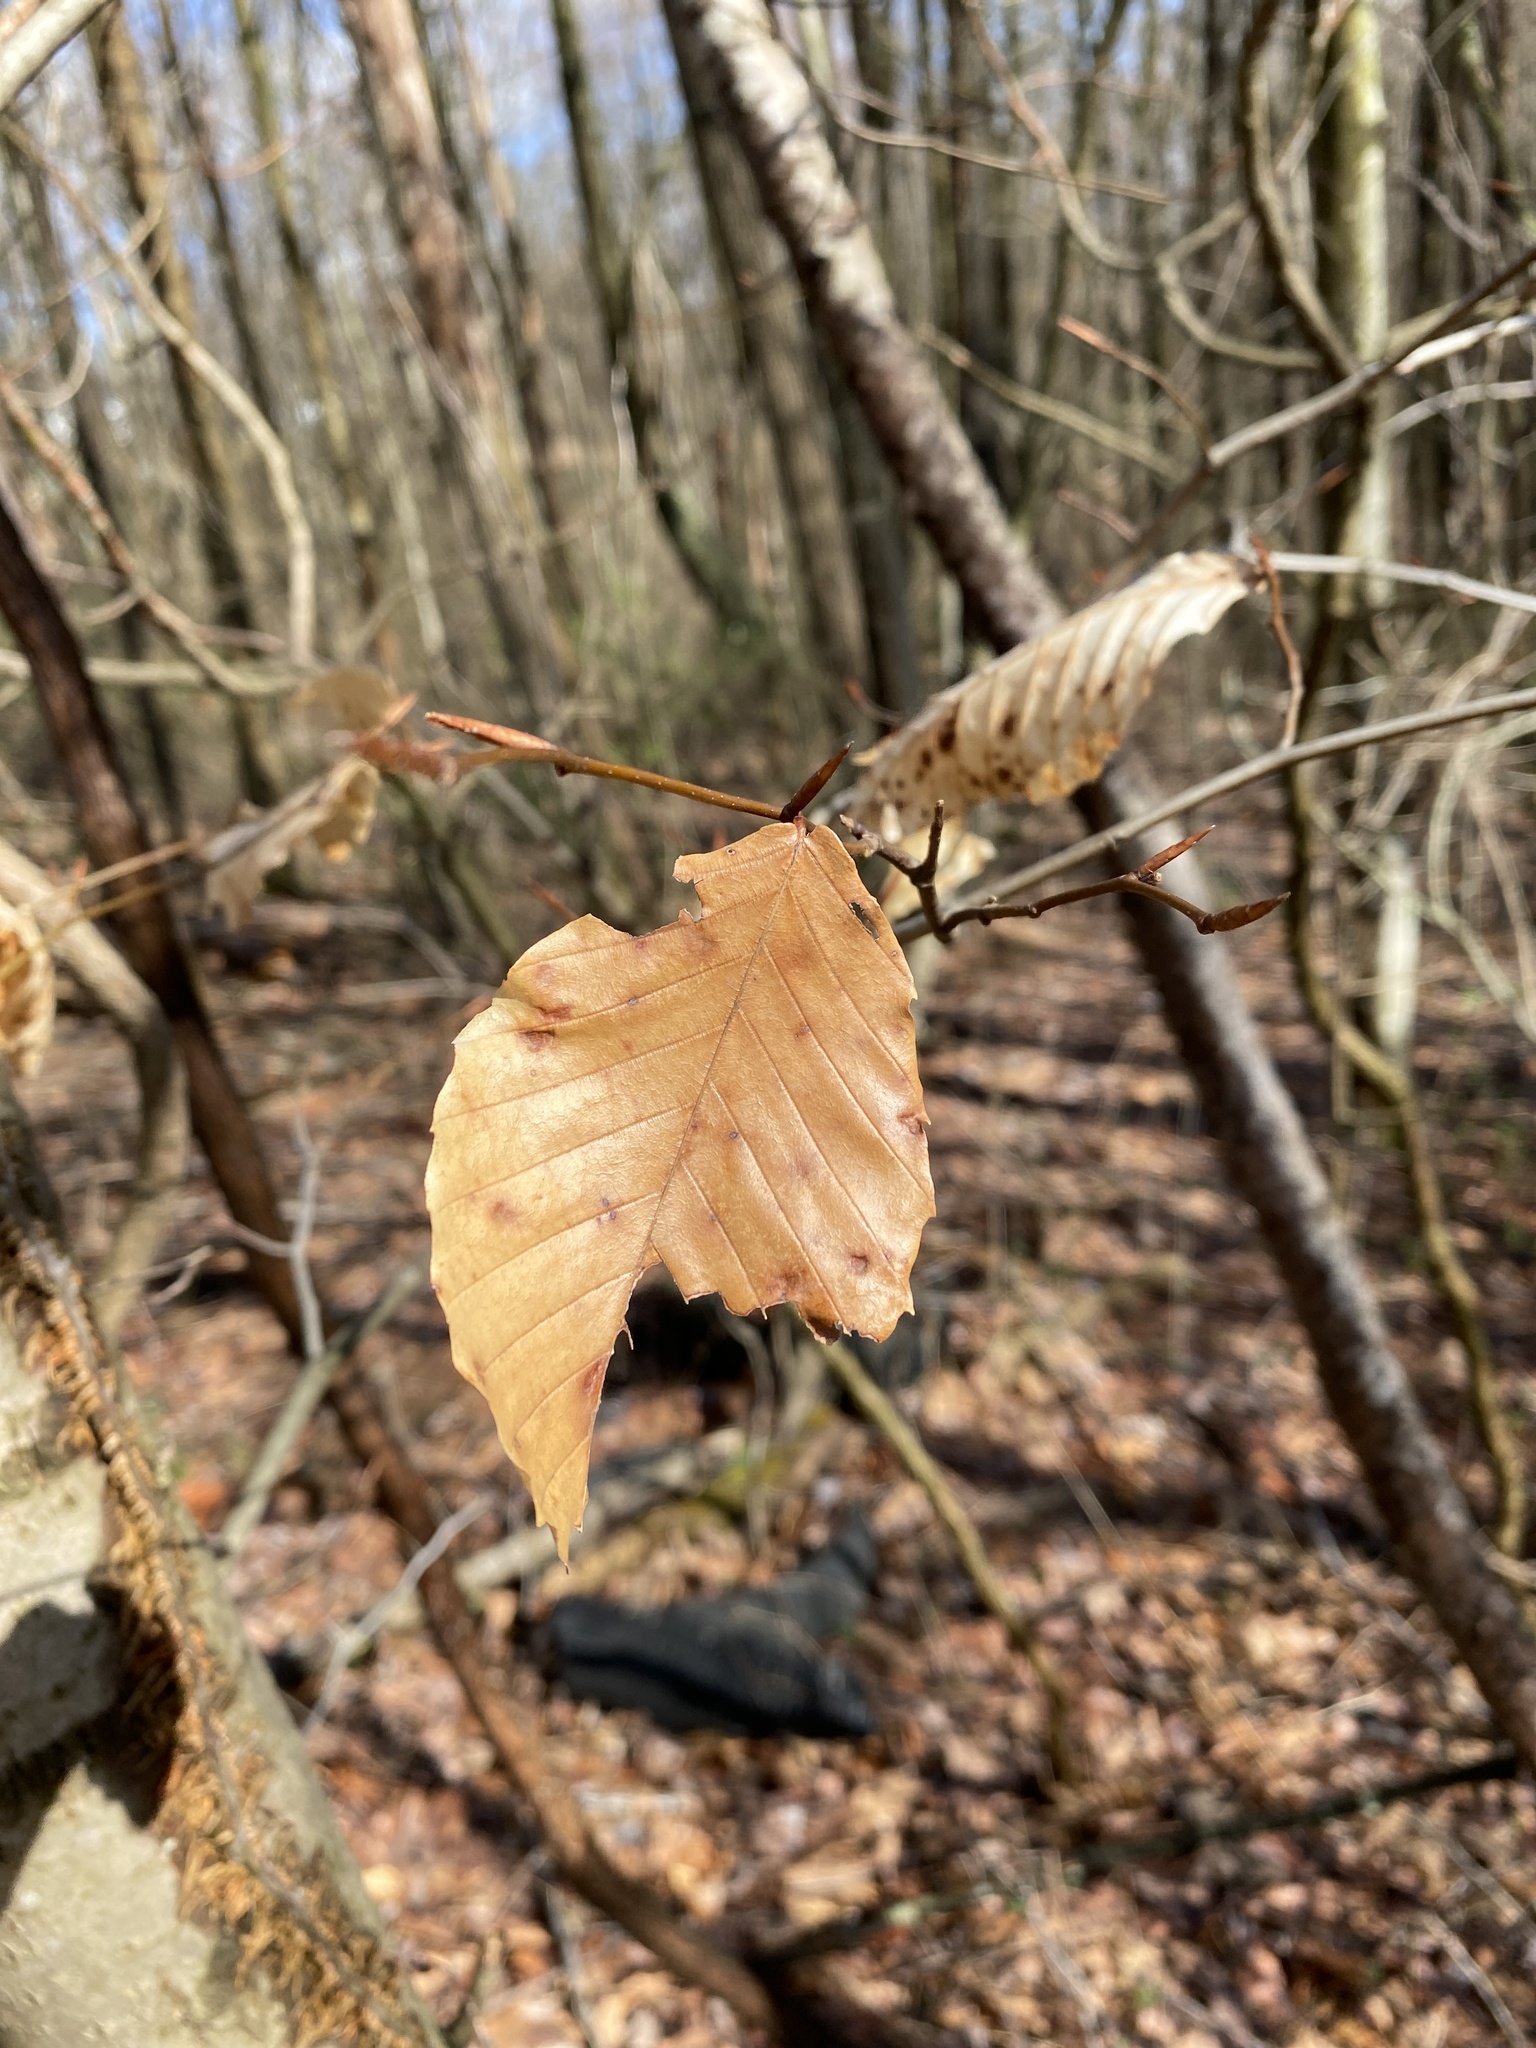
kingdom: Plantae
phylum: Tracheophyta
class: Magnoliopsida
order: Fagales
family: Fagaceae
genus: Fagus
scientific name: Fagus grandifolia
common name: American beech
